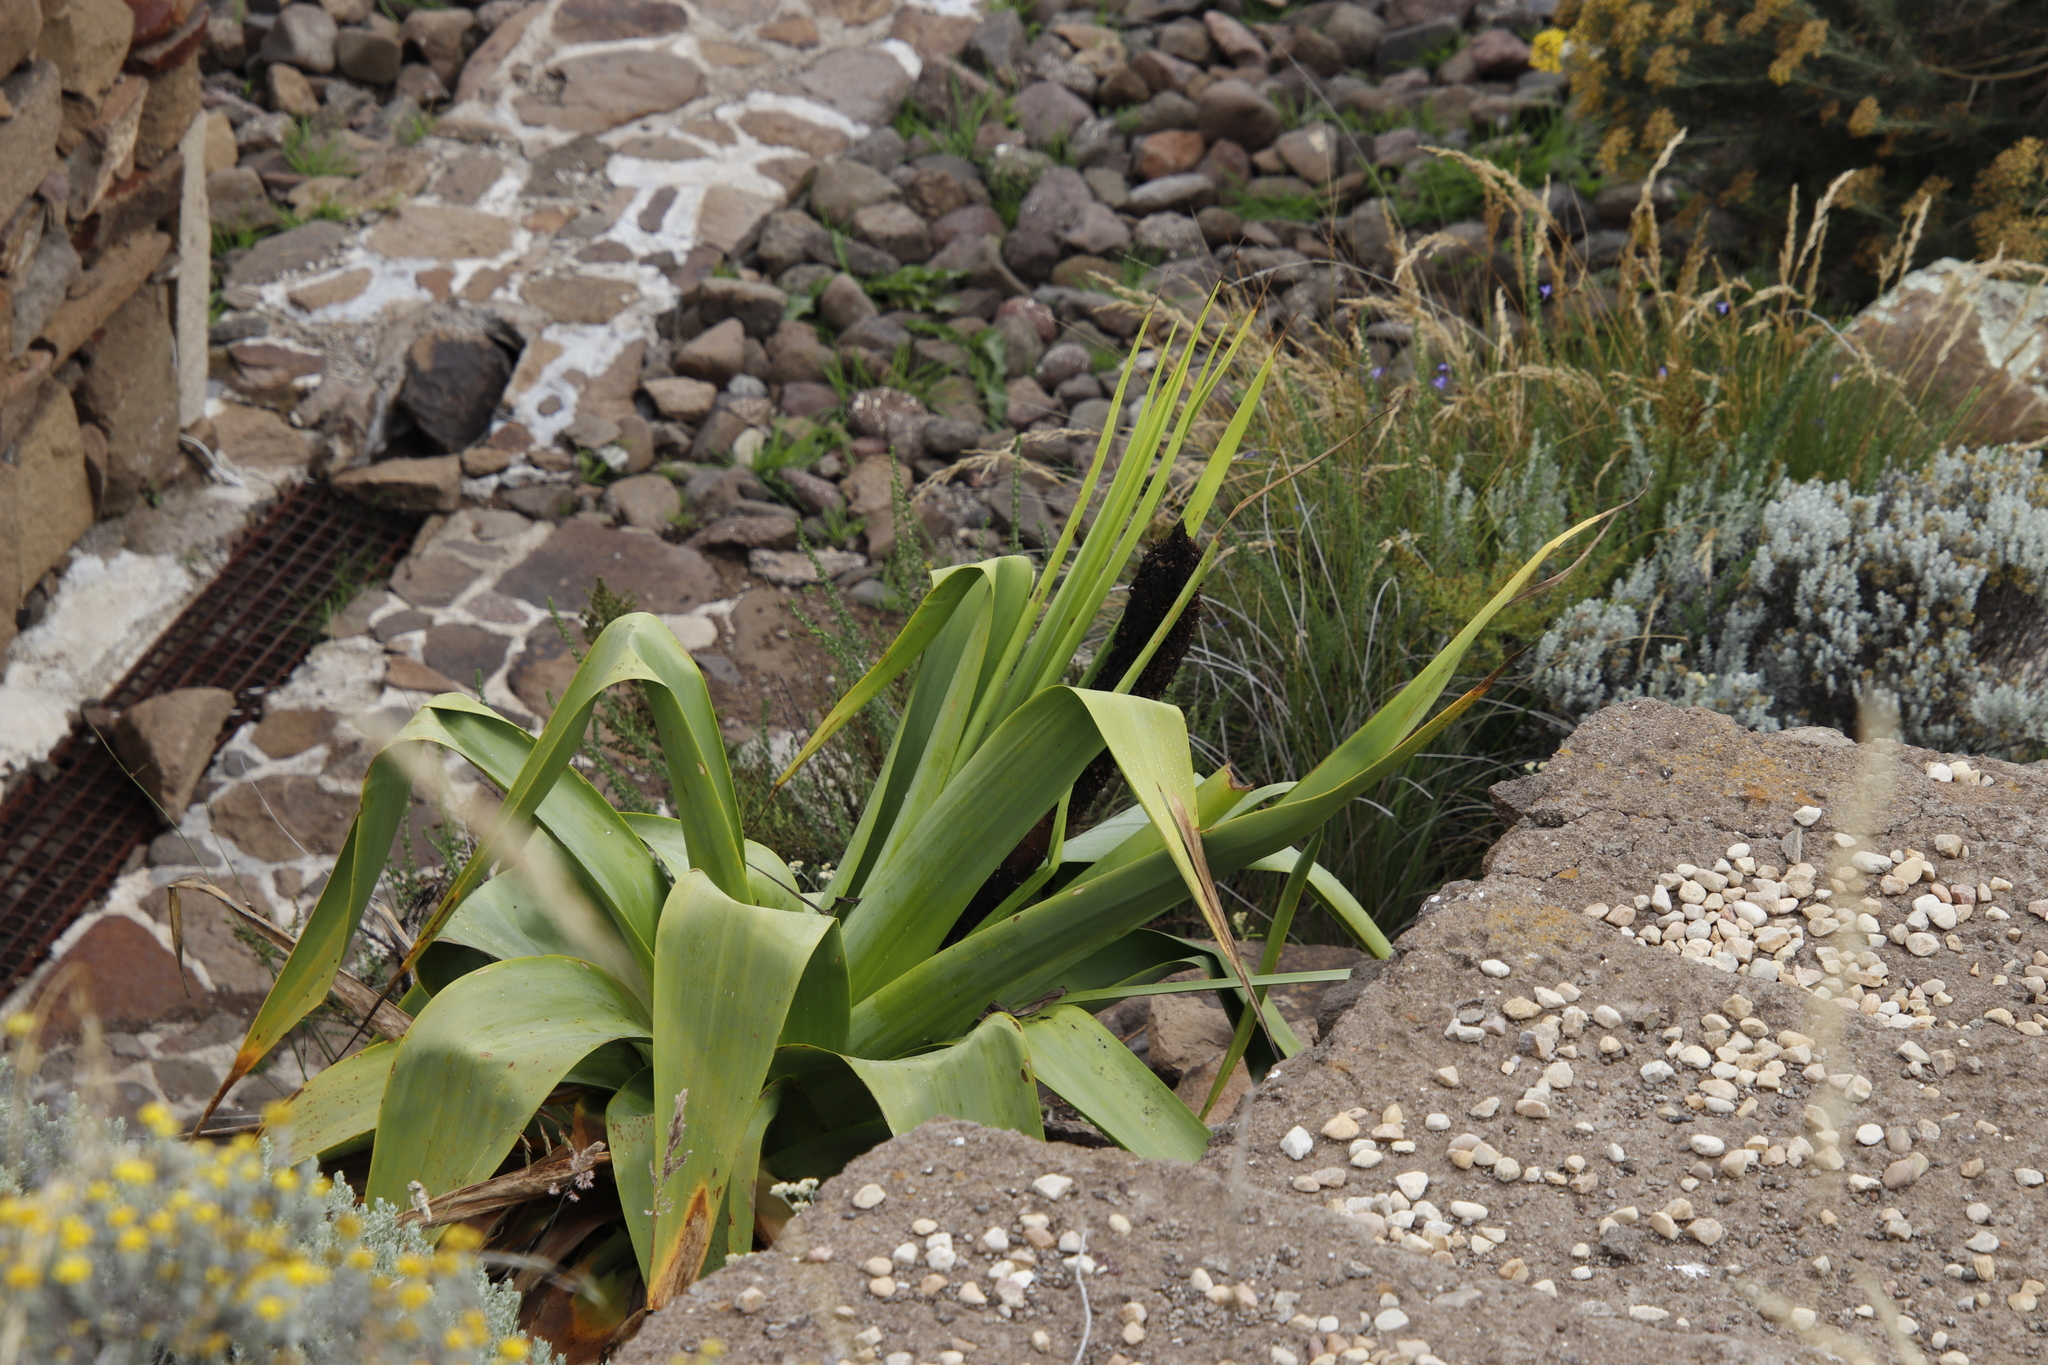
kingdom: Plantae
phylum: Tracheophyta
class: Liliopsida
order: Asparagales
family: Asphodelaceae
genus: Kniphofia
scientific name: Kniphofia northiae
